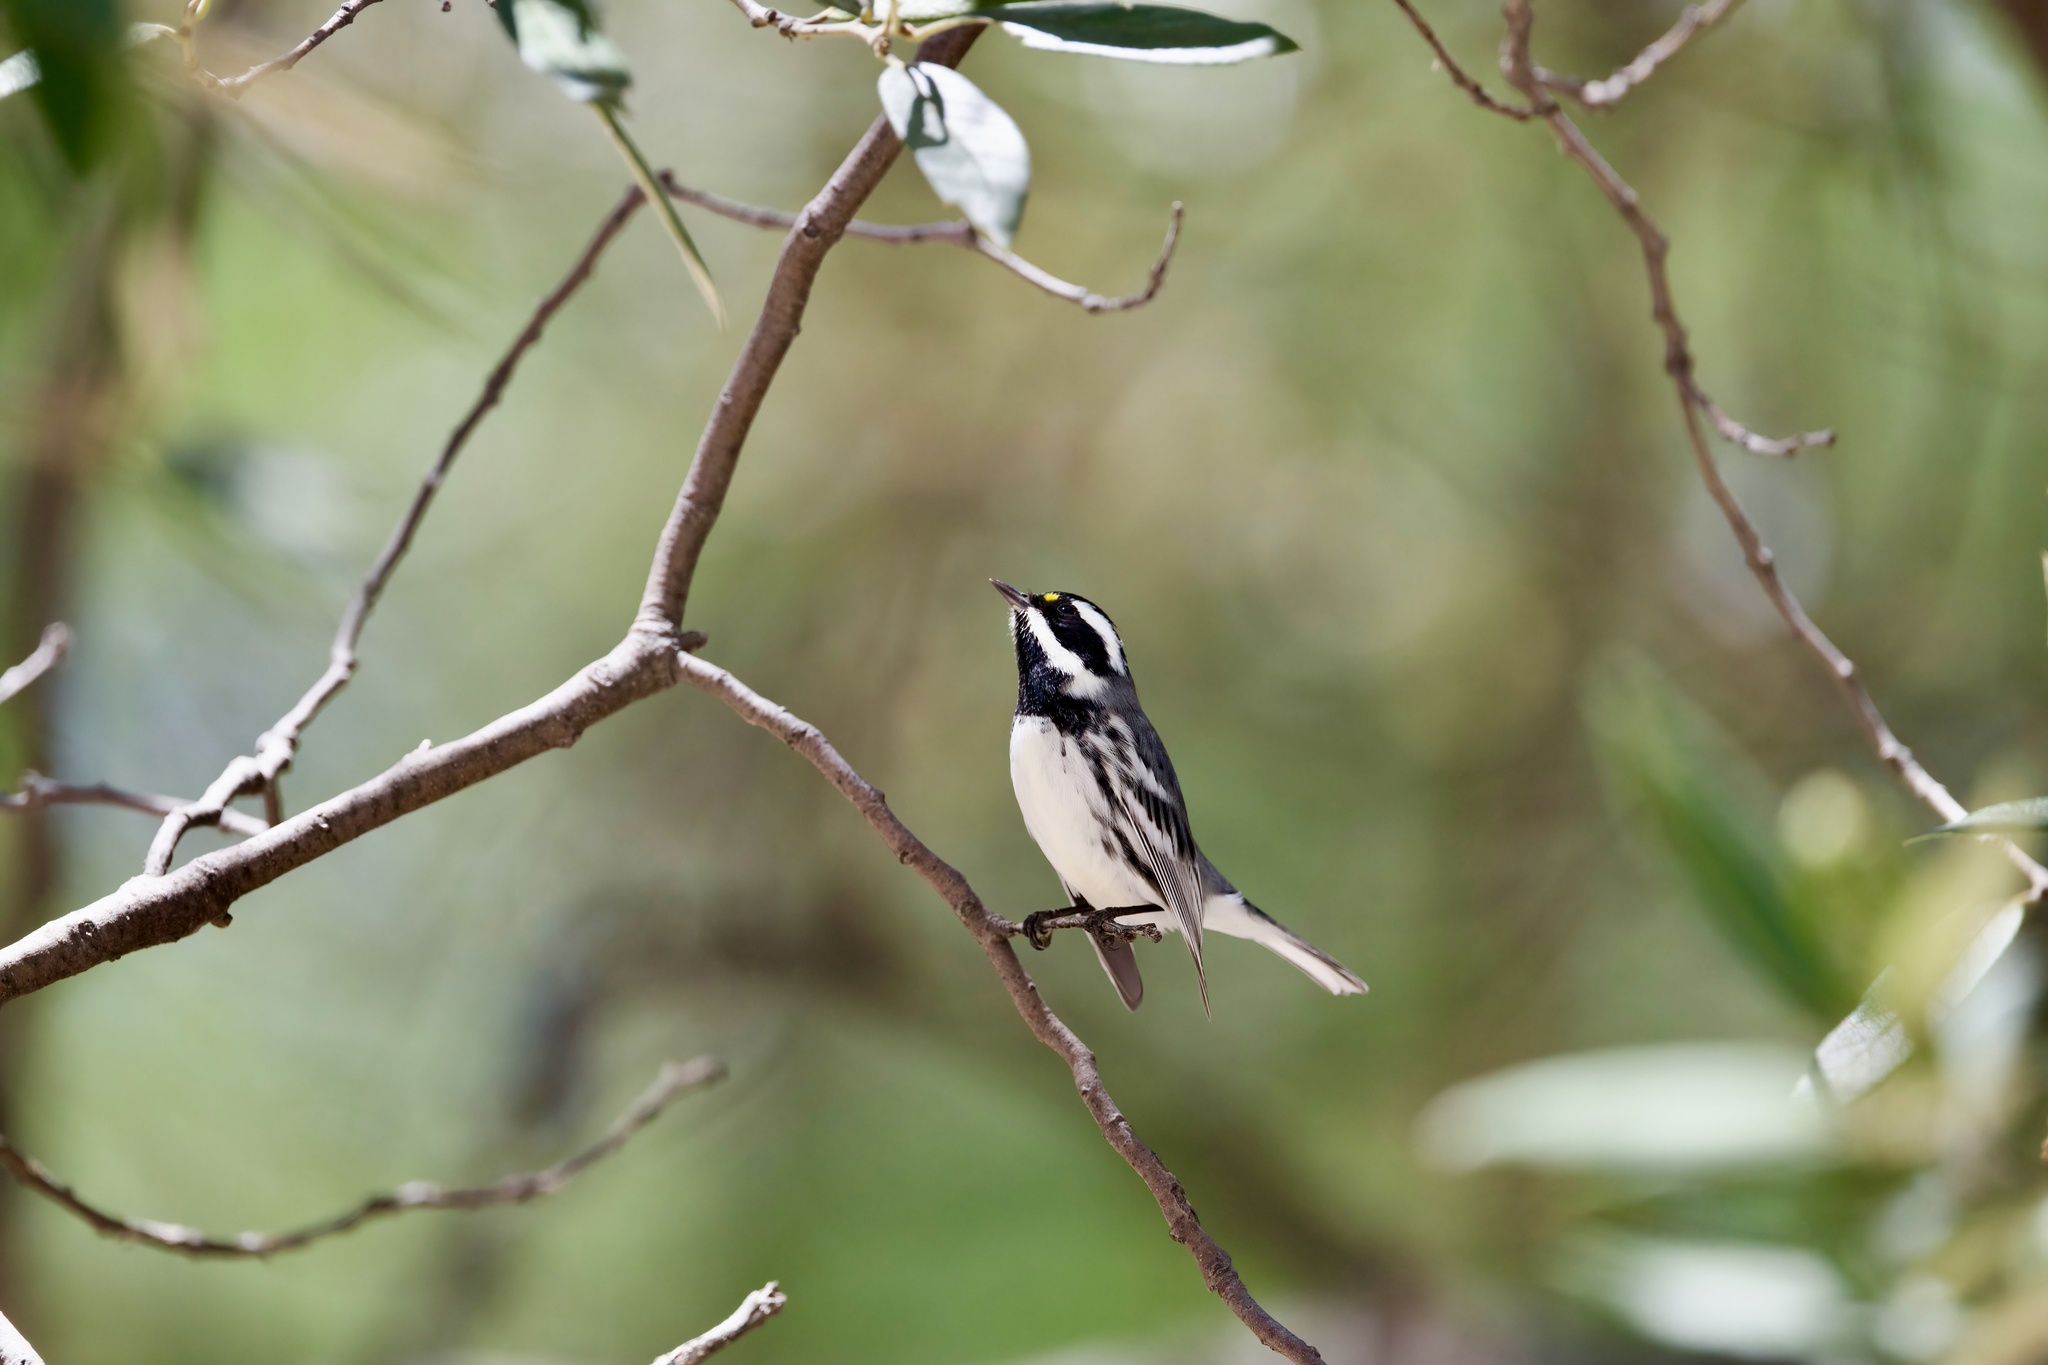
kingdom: Animalia
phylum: Chordata
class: Aves
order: Passeriformes
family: Parulidae
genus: Setophaga
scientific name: Setophaga nigrescens
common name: Black-throated gray warbler
